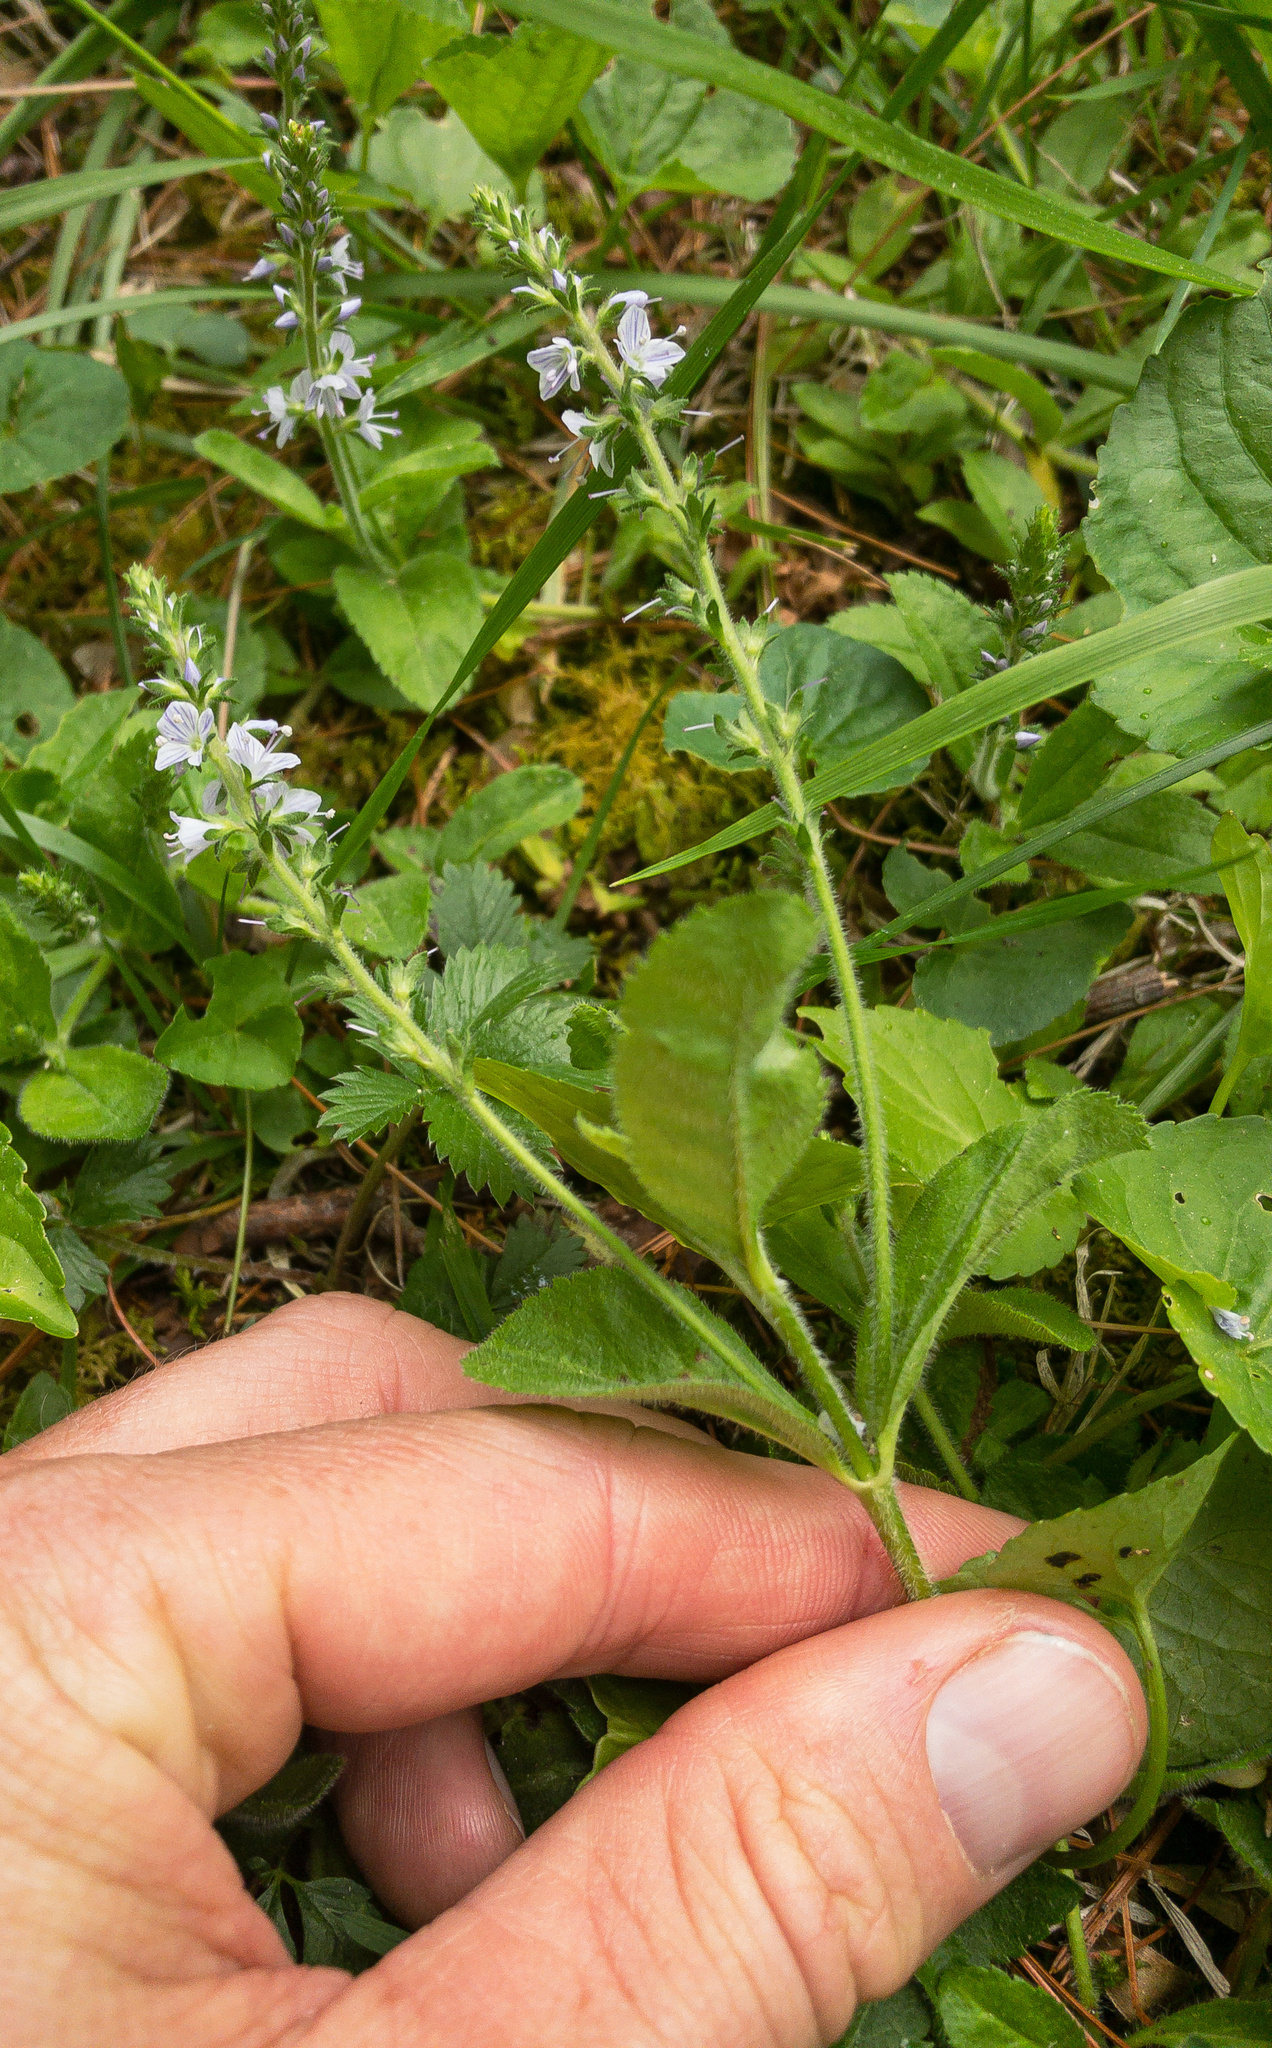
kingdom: Plantae
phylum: Tracheophyta
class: Magnoliopsida
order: Lamiales
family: Plantaginaceae
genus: Veronica
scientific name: Veronica officinalis
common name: Common speedwell
